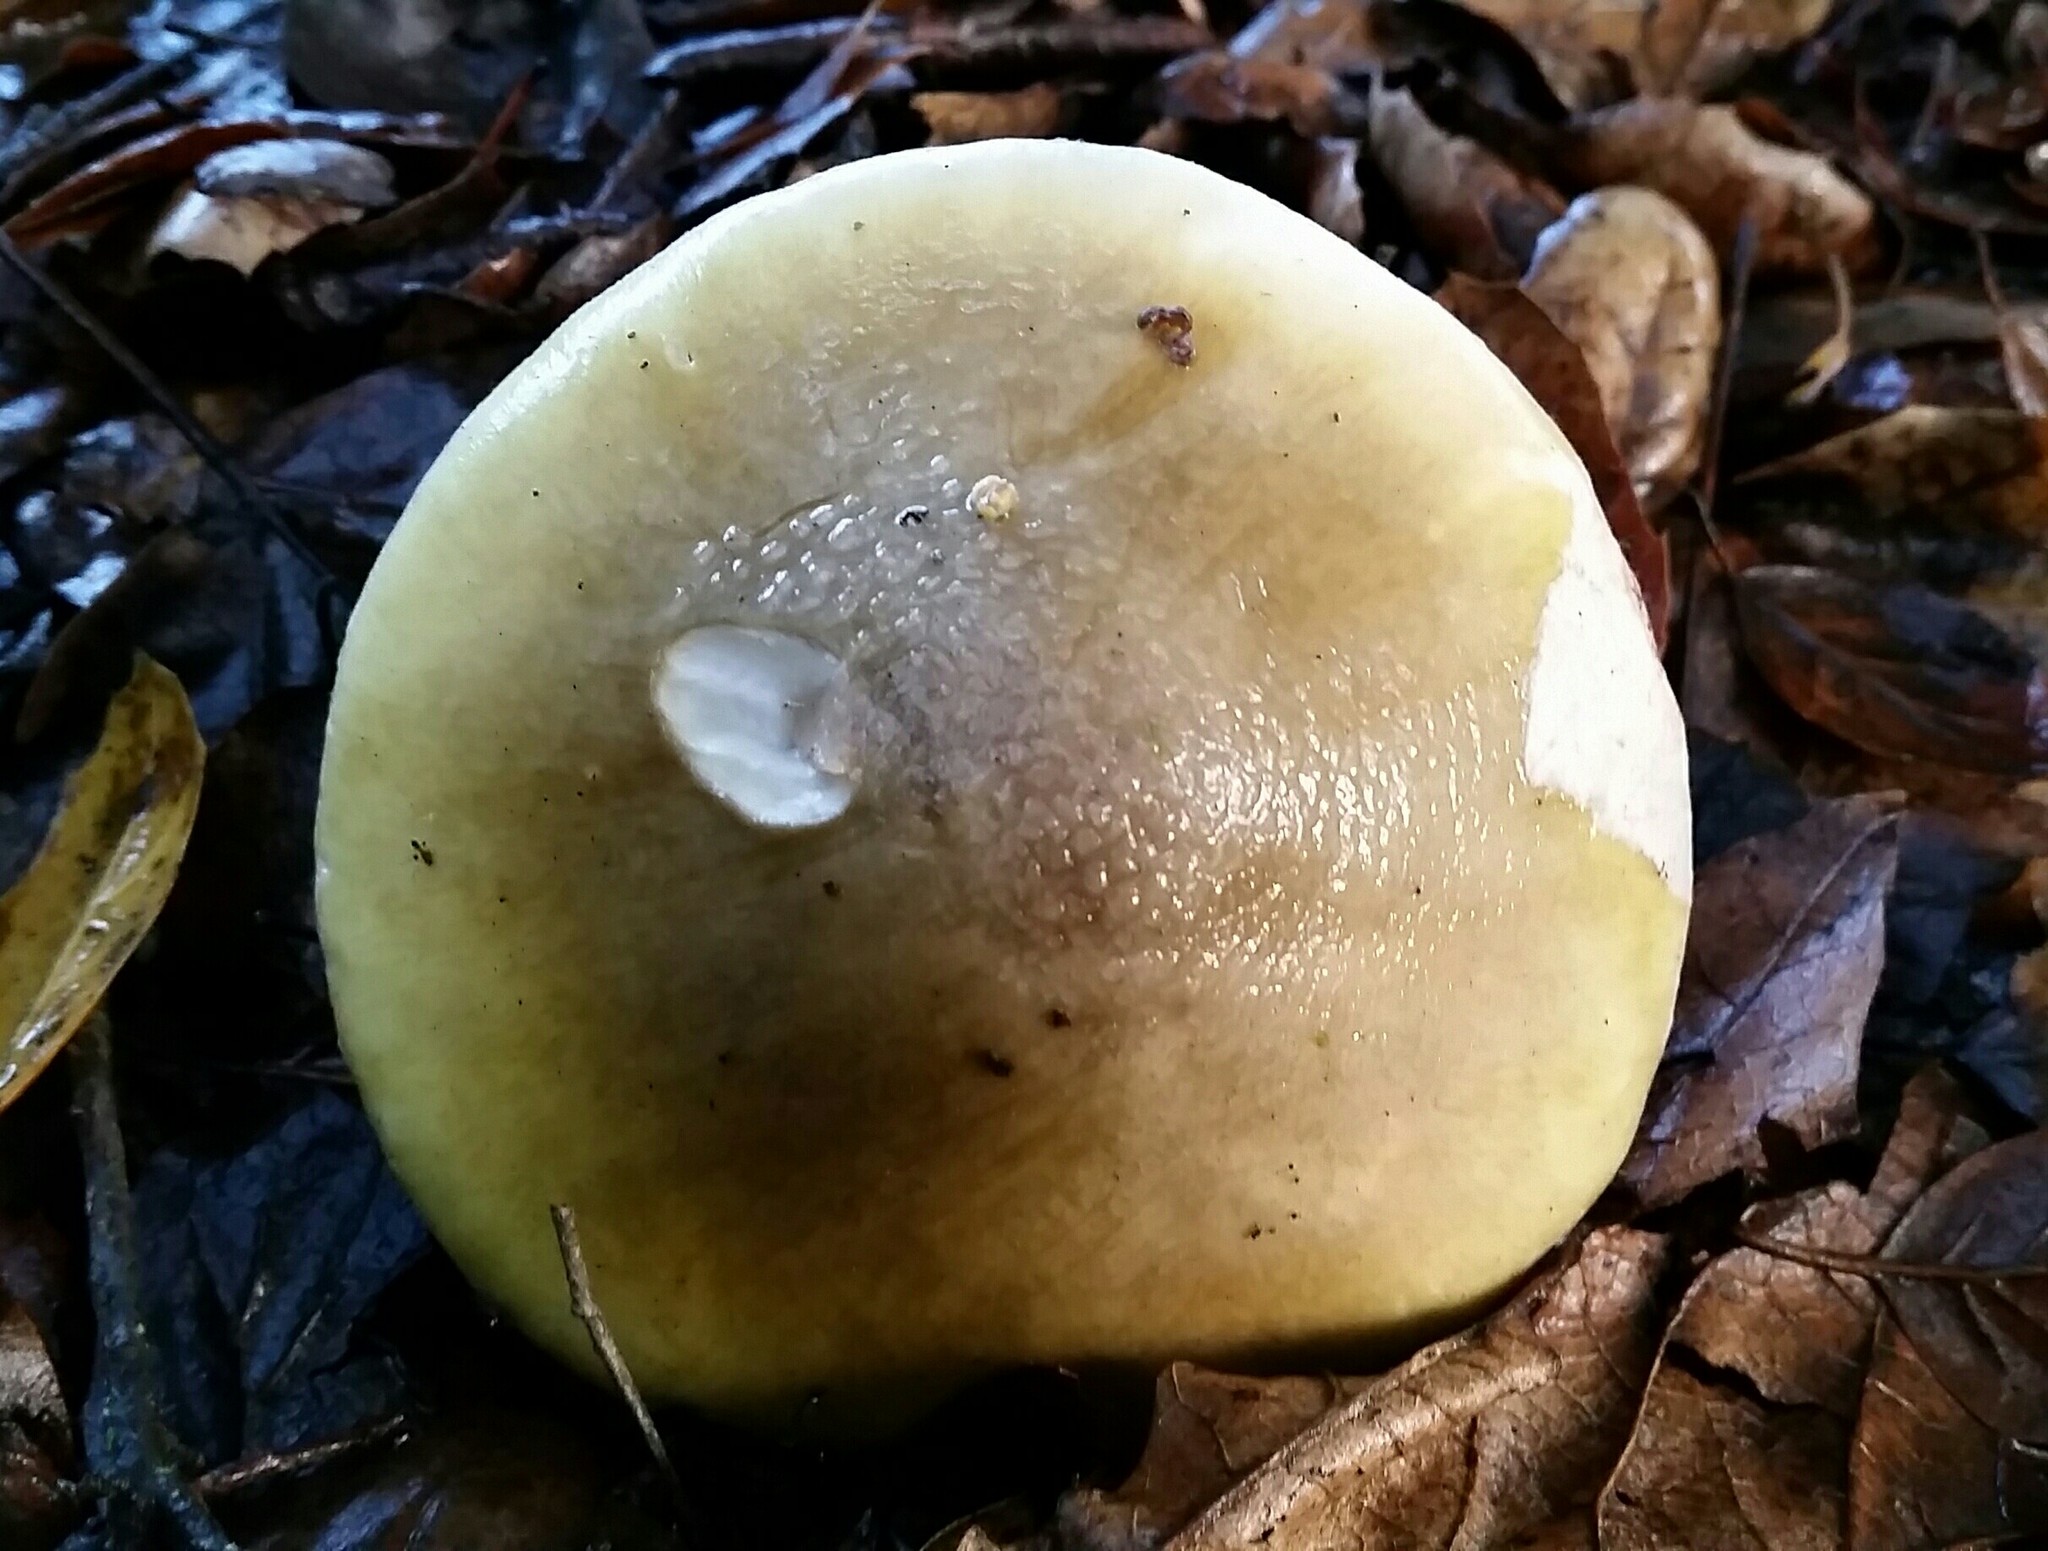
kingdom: Fungi
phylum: Basidiomycota
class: Agaricomycetes
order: Agaricales
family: Amanitaceae
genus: Amanita
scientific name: Amanita phalloides
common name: Death cap
